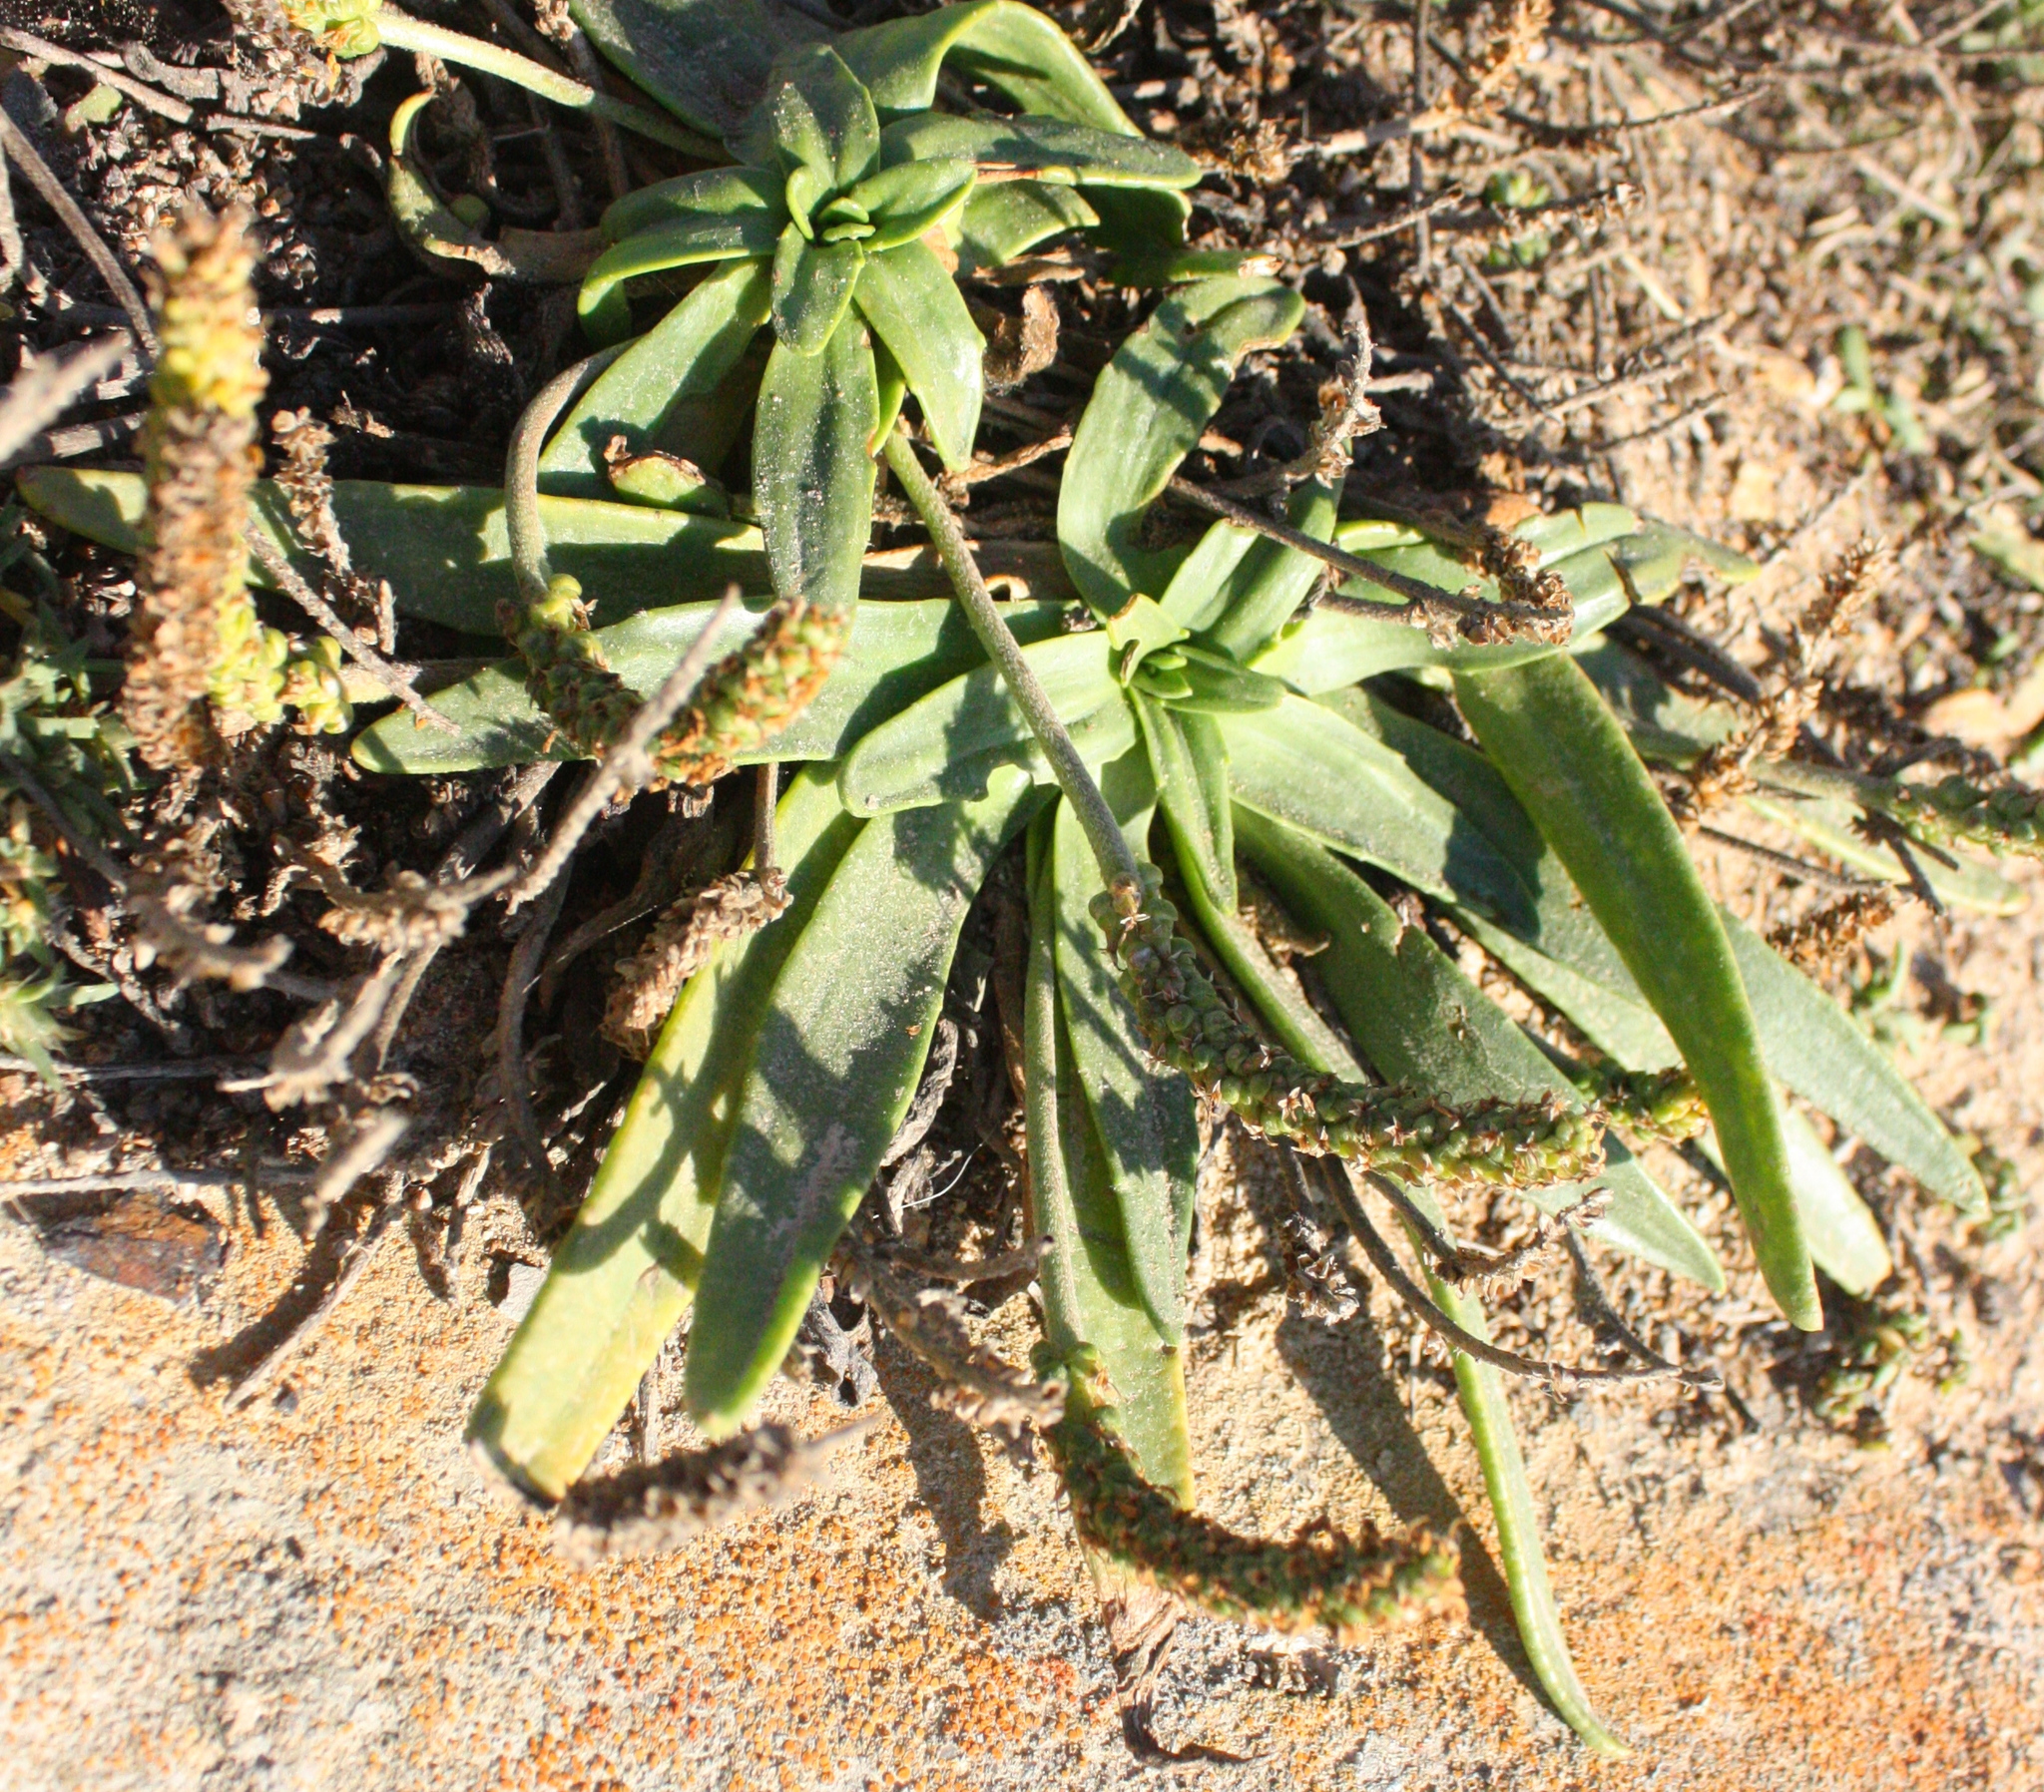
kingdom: Plantae
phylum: Tracheophyta
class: Magnoliopsida
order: Lamiales
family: Plantaginaceae
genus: Plantago
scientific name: Plantago maritima
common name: Sea plantain
